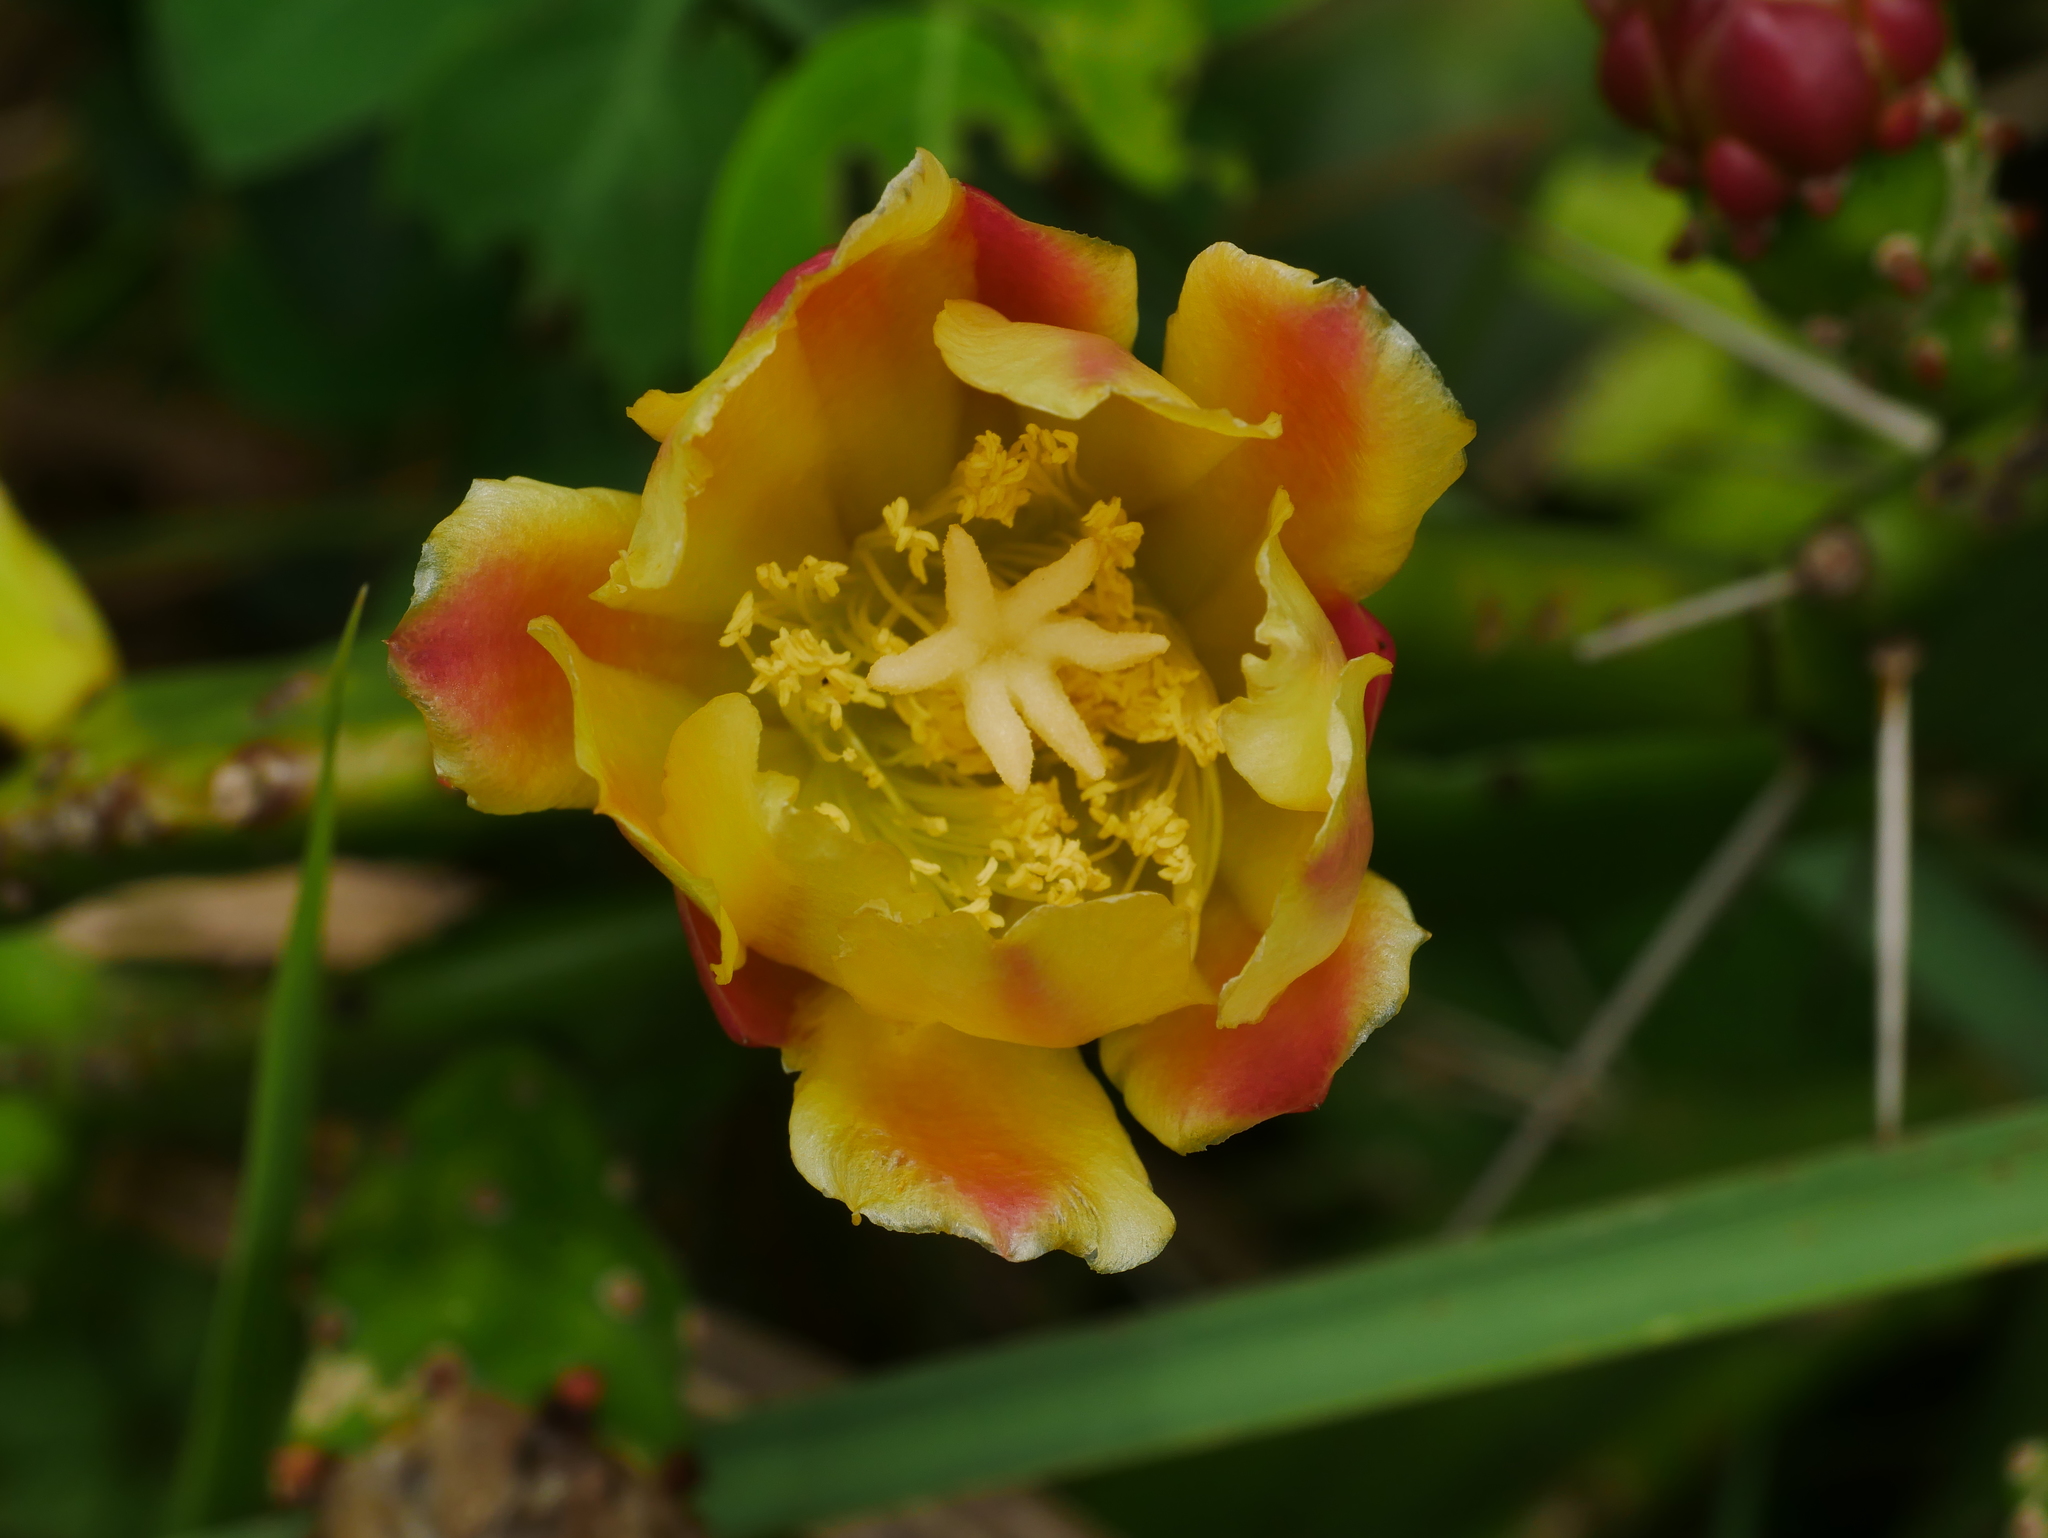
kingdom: Plantae
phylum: Tracheophyta
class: Magnoliopsida
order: Caryophyllales
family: Cactaceae
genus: Opuntia
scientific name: Opuntia monacantha
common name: Common pricklypear
